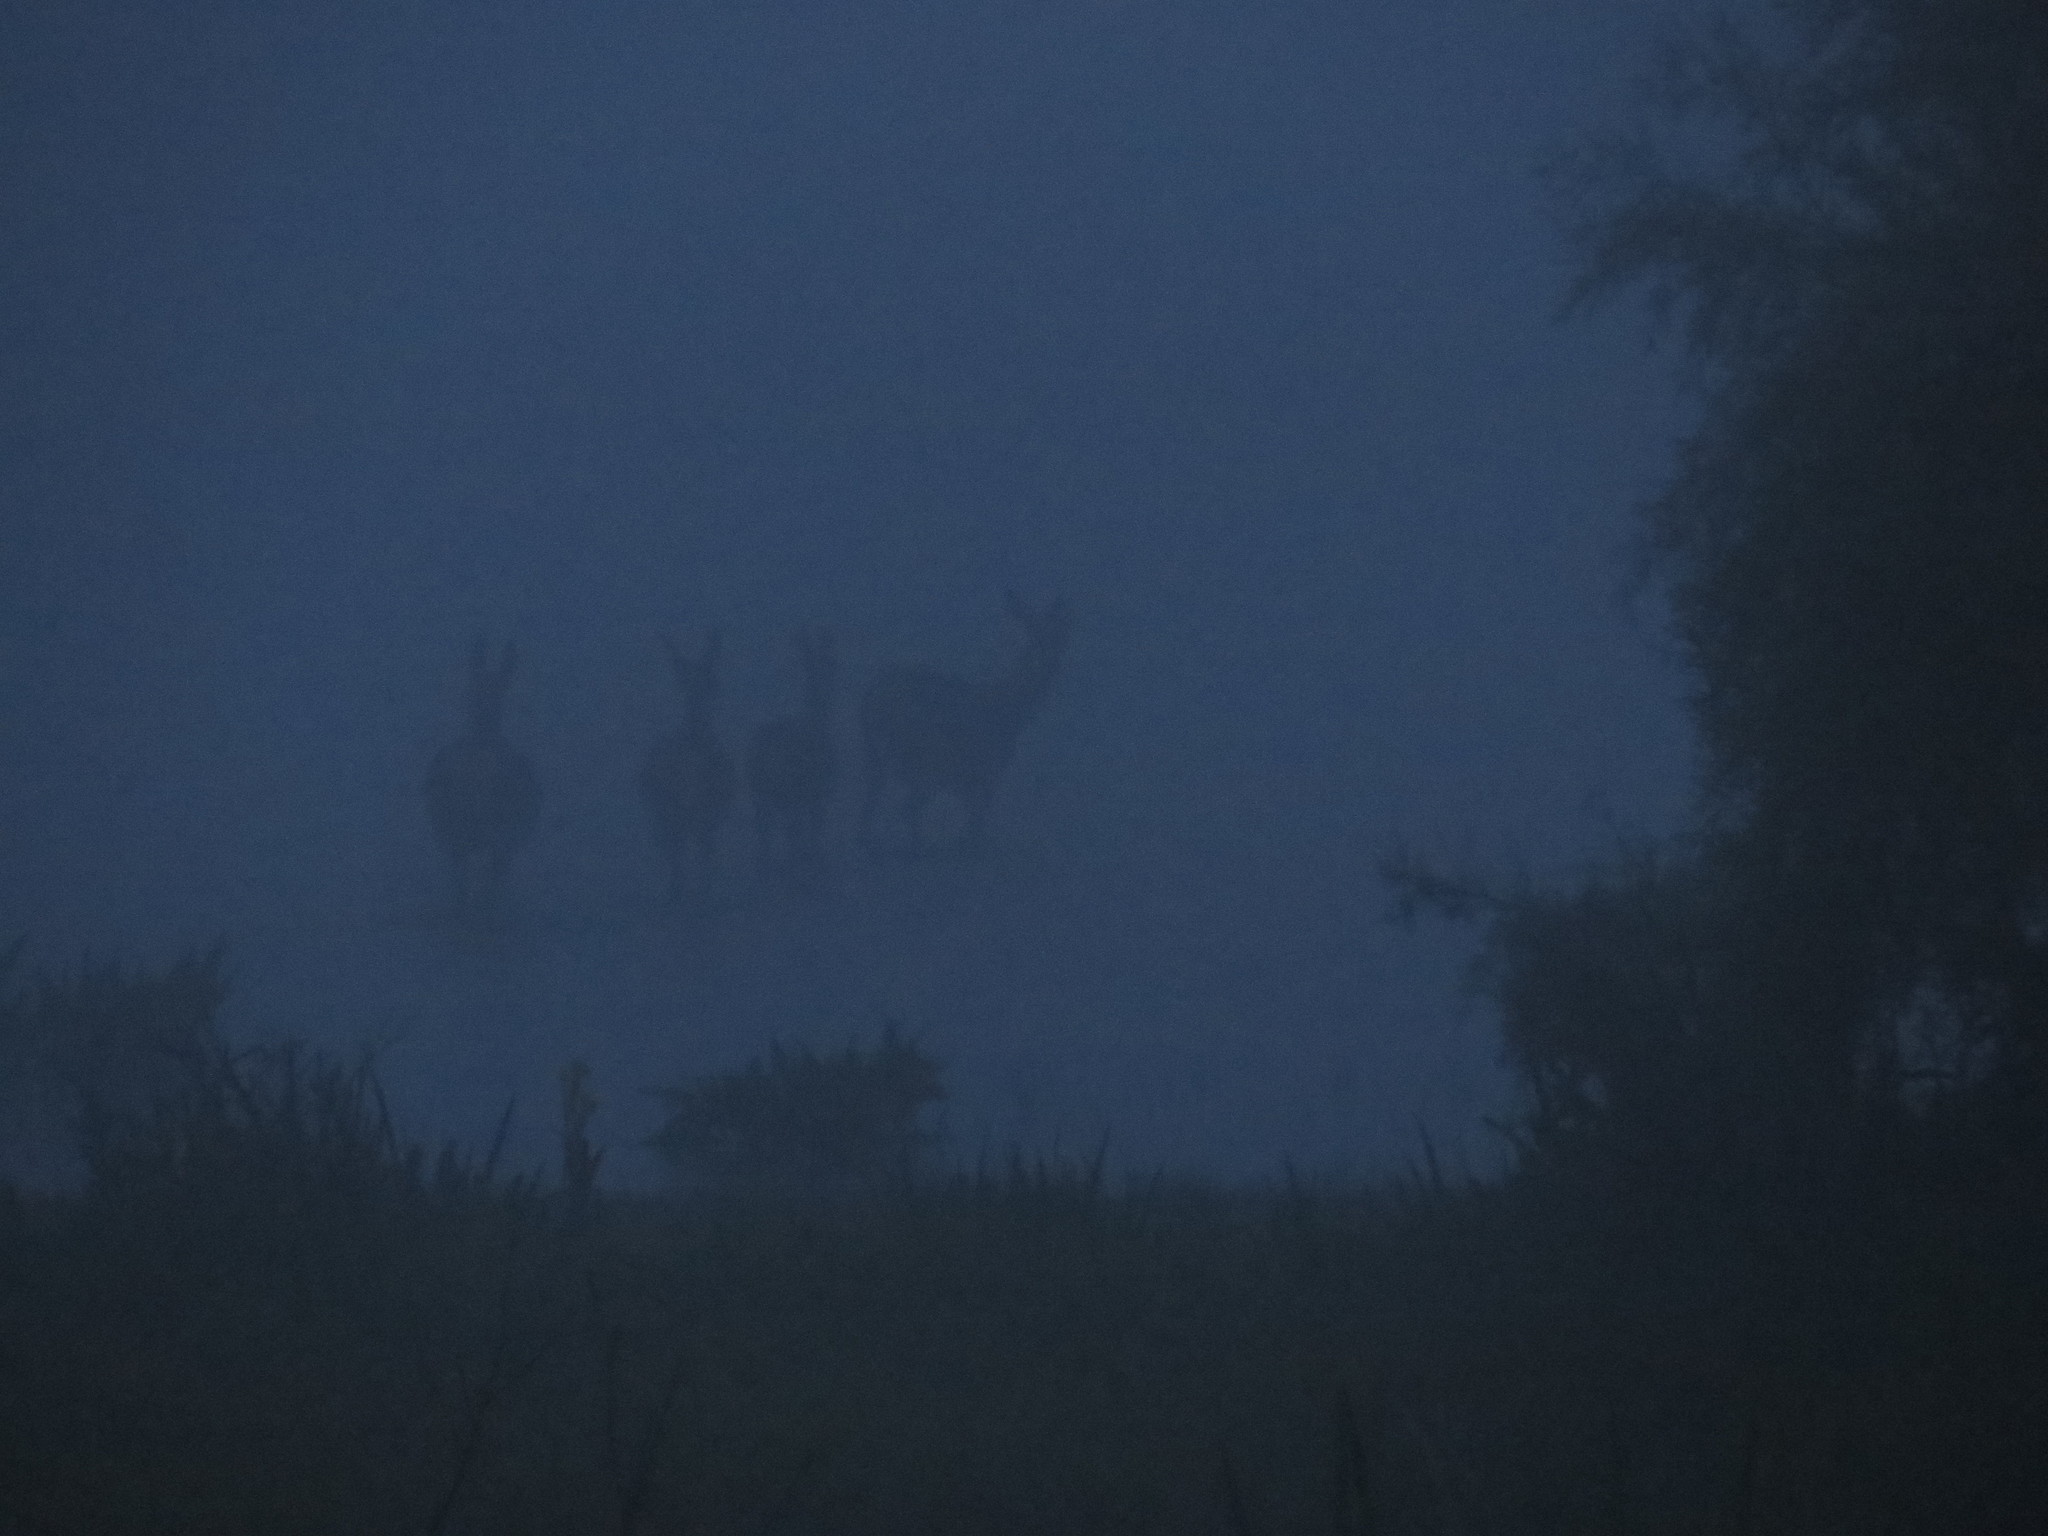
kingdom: Animalia
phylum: Chordata
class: Mammalia
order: Artiodactyla
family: Cervidae
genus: Cervus
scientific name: Cervus elaphus
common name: Red deer
